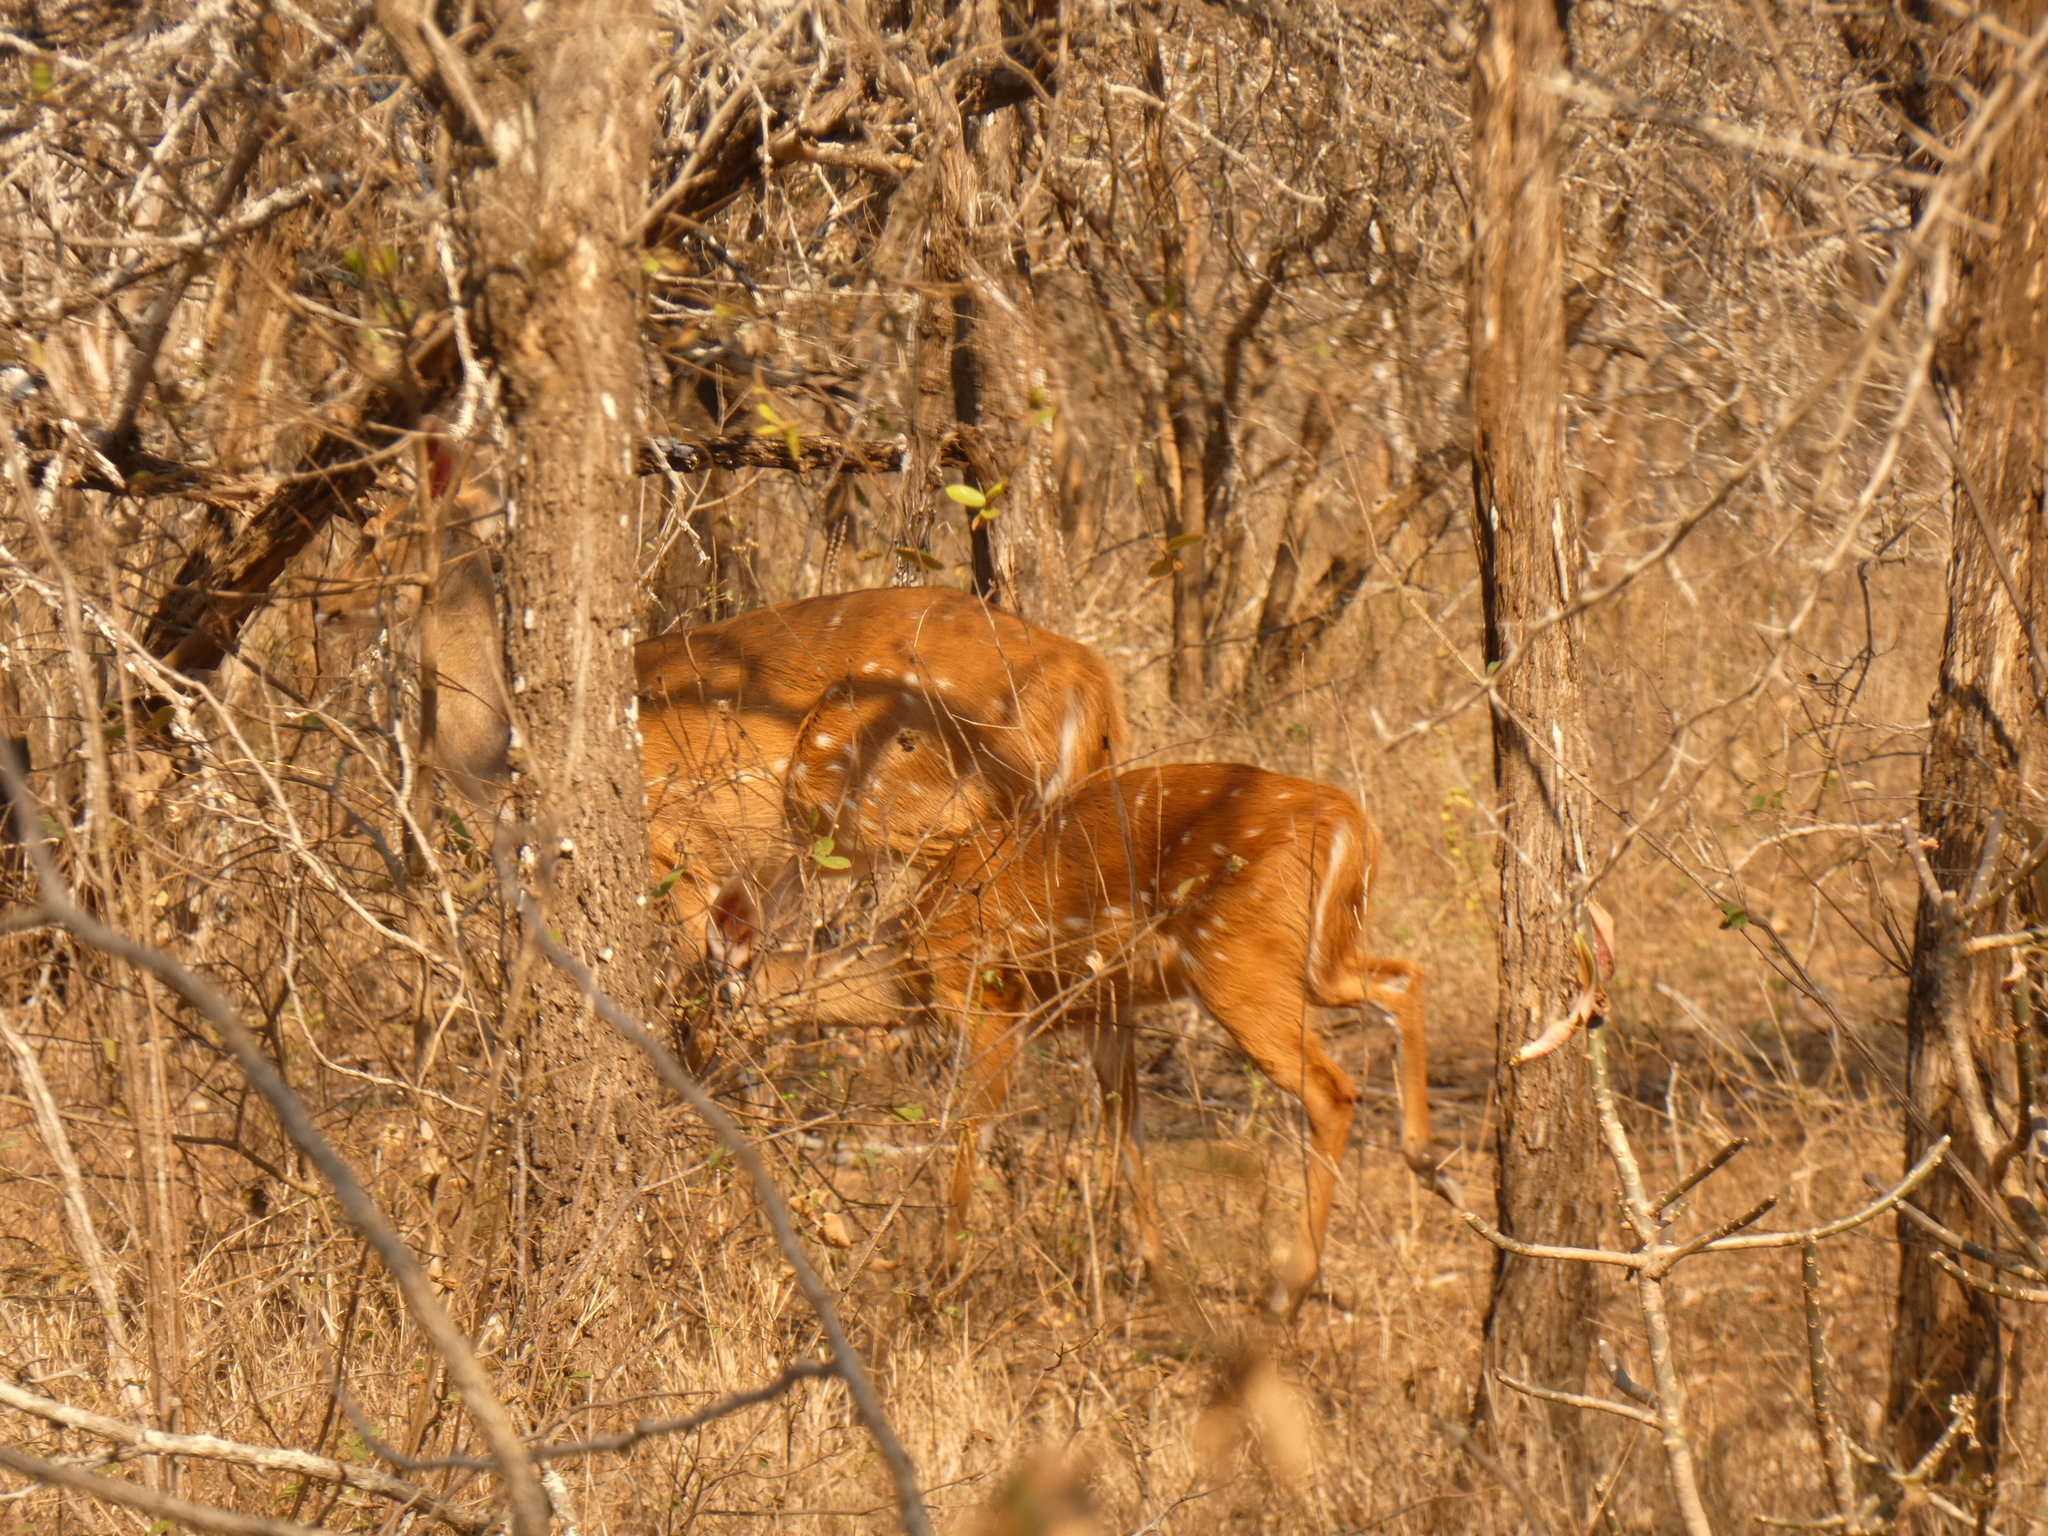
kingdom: Animalia
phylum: Chordata
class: Mammalia
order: Artiodactyla
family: Bovidae
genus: Tragelaphus
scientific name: Tragelaphus scriptus
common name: Bushbuck
